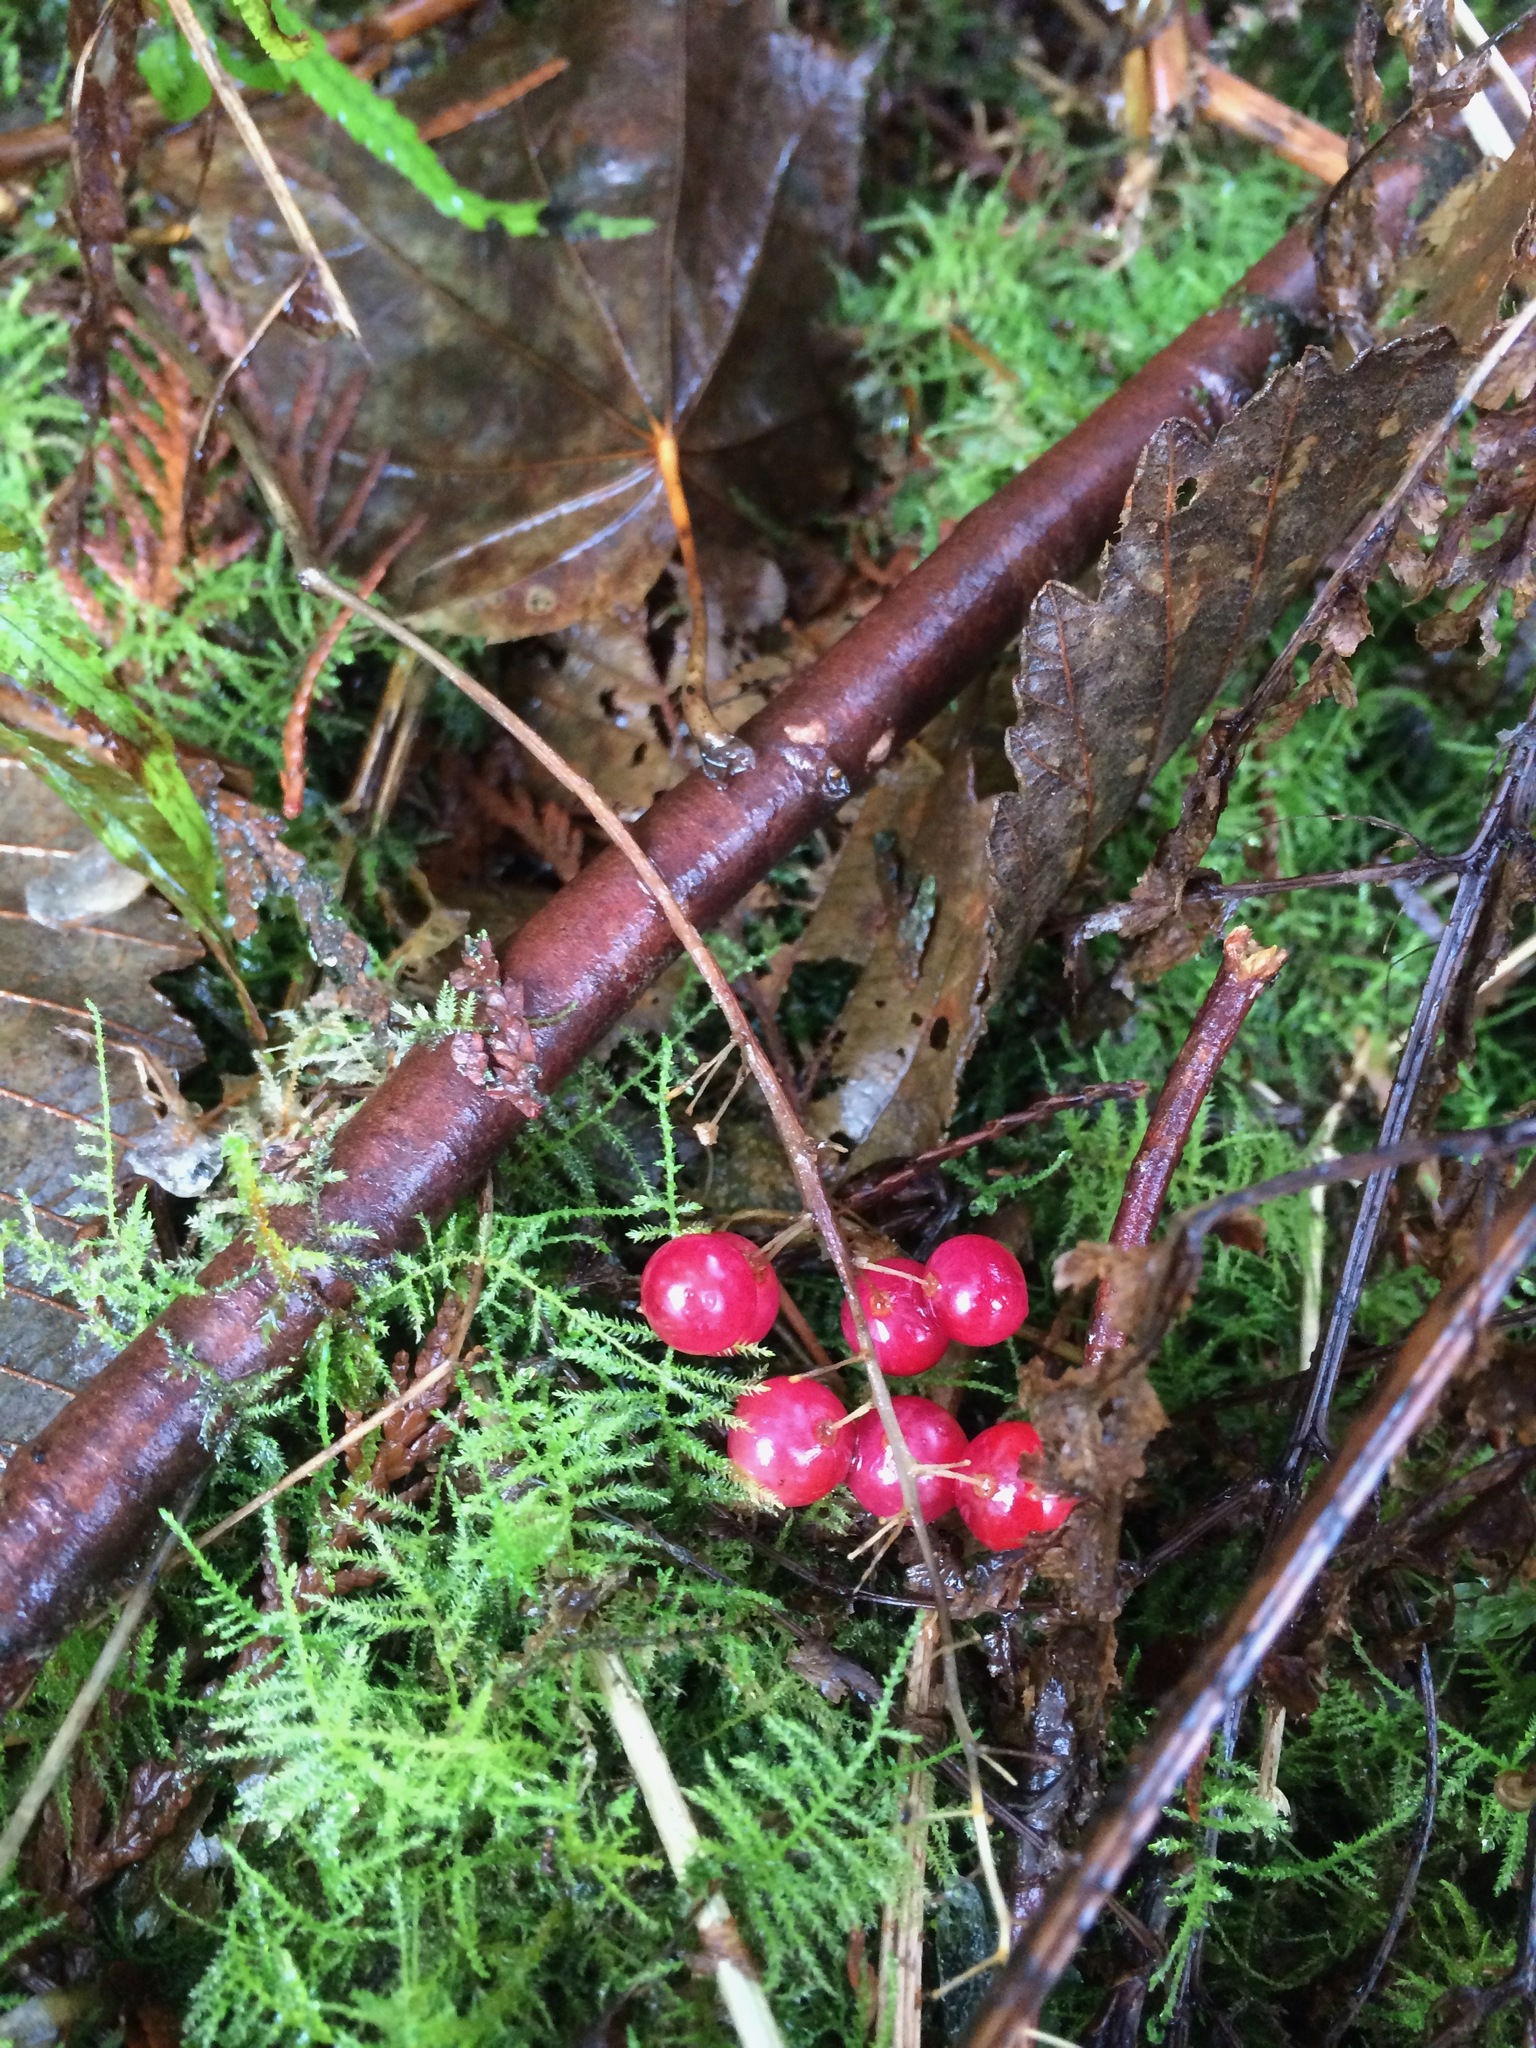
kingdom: Plantae
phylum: Tracheophyta
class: Liliopsida
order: Asparagales
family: Asparagaceae
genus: Maianthemum
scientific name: Maianthemum dilatatum
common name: False lily-of-the-valley
